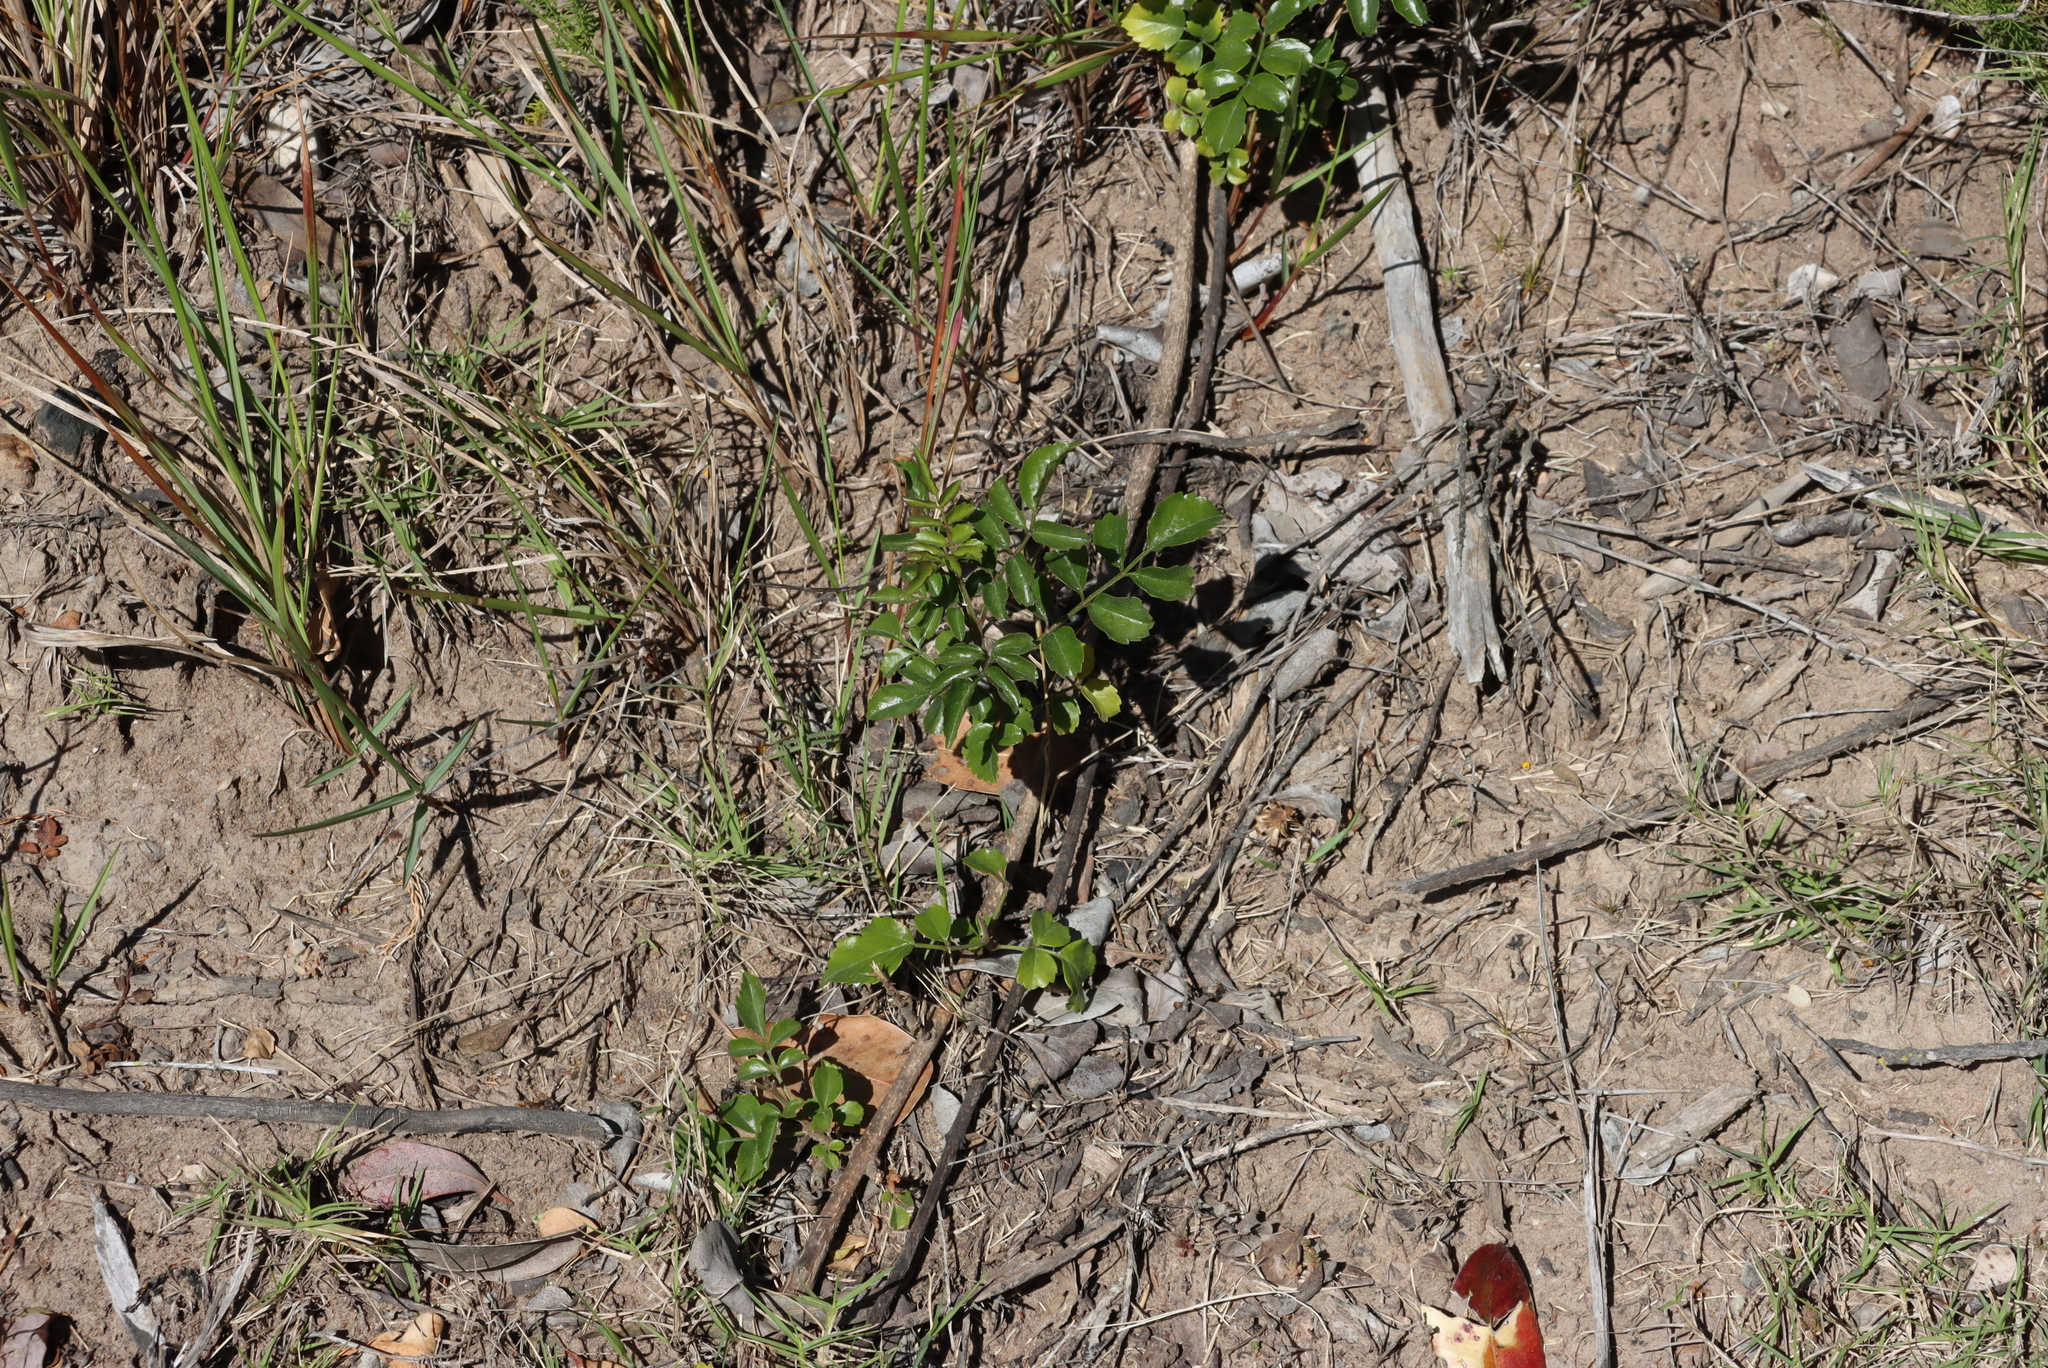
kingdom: Plantae
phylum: Tracheophyta
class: Magnoliopsida
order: Lamiales
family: Bignoniaceae
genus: Tecomaria
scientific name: Tecomaria capensis
